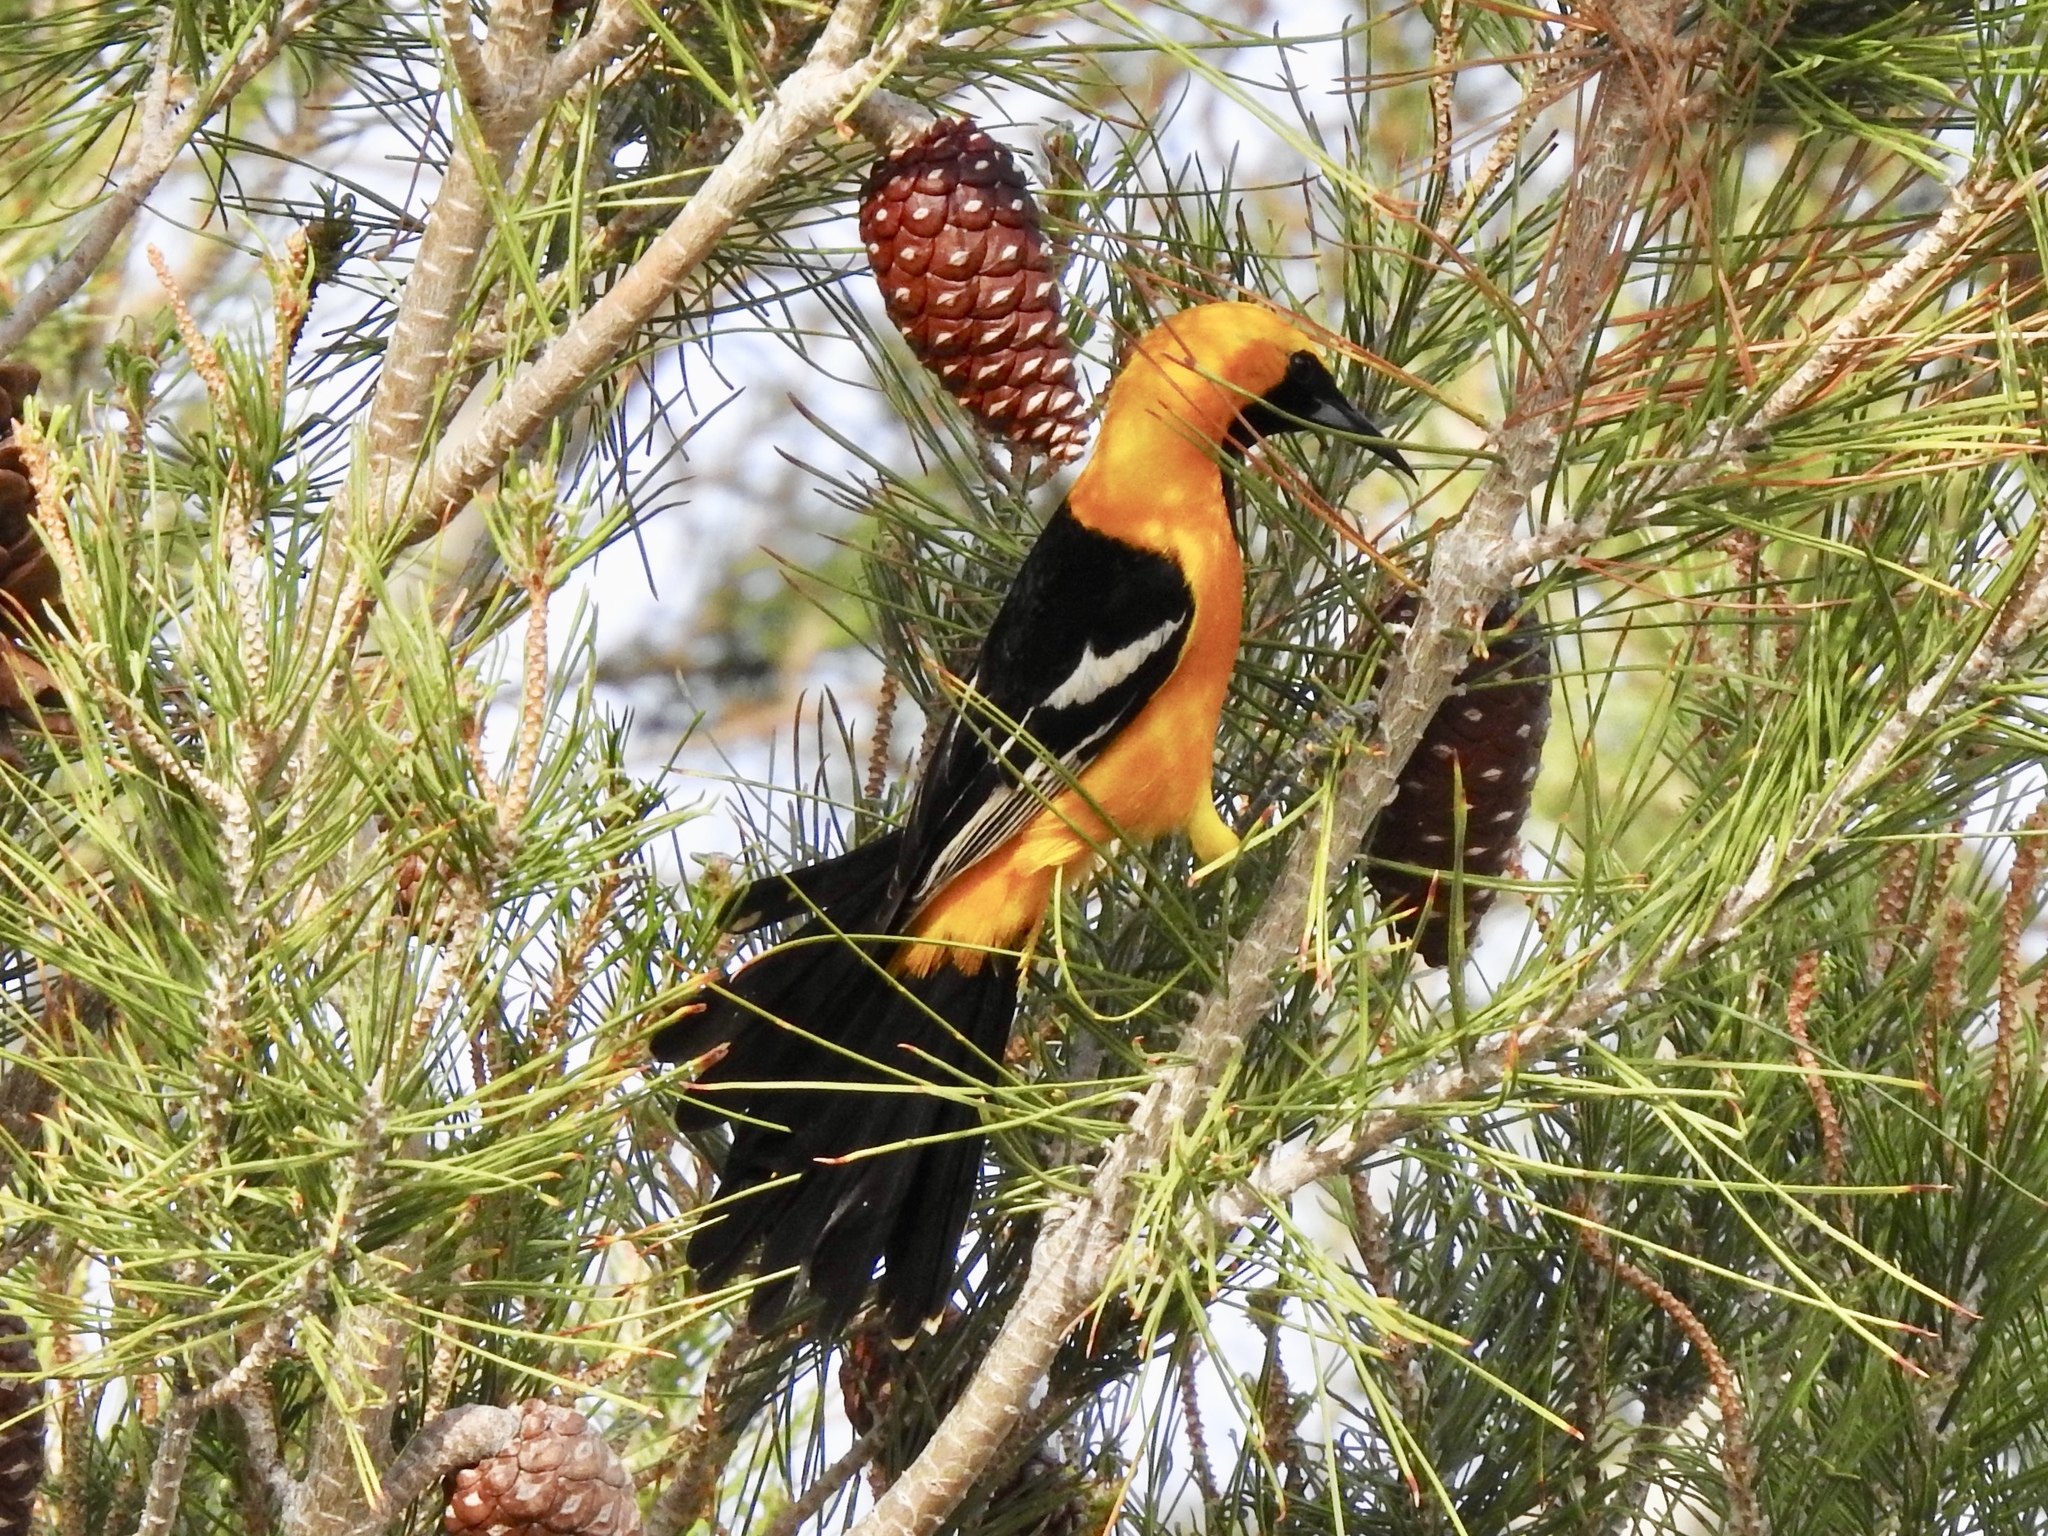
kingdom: Animalia
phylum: Chordata
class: Aves
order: Passeriformes
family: Icteridae
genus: Icterus
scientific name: Icterus cucullatus
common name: Hooded oriole
